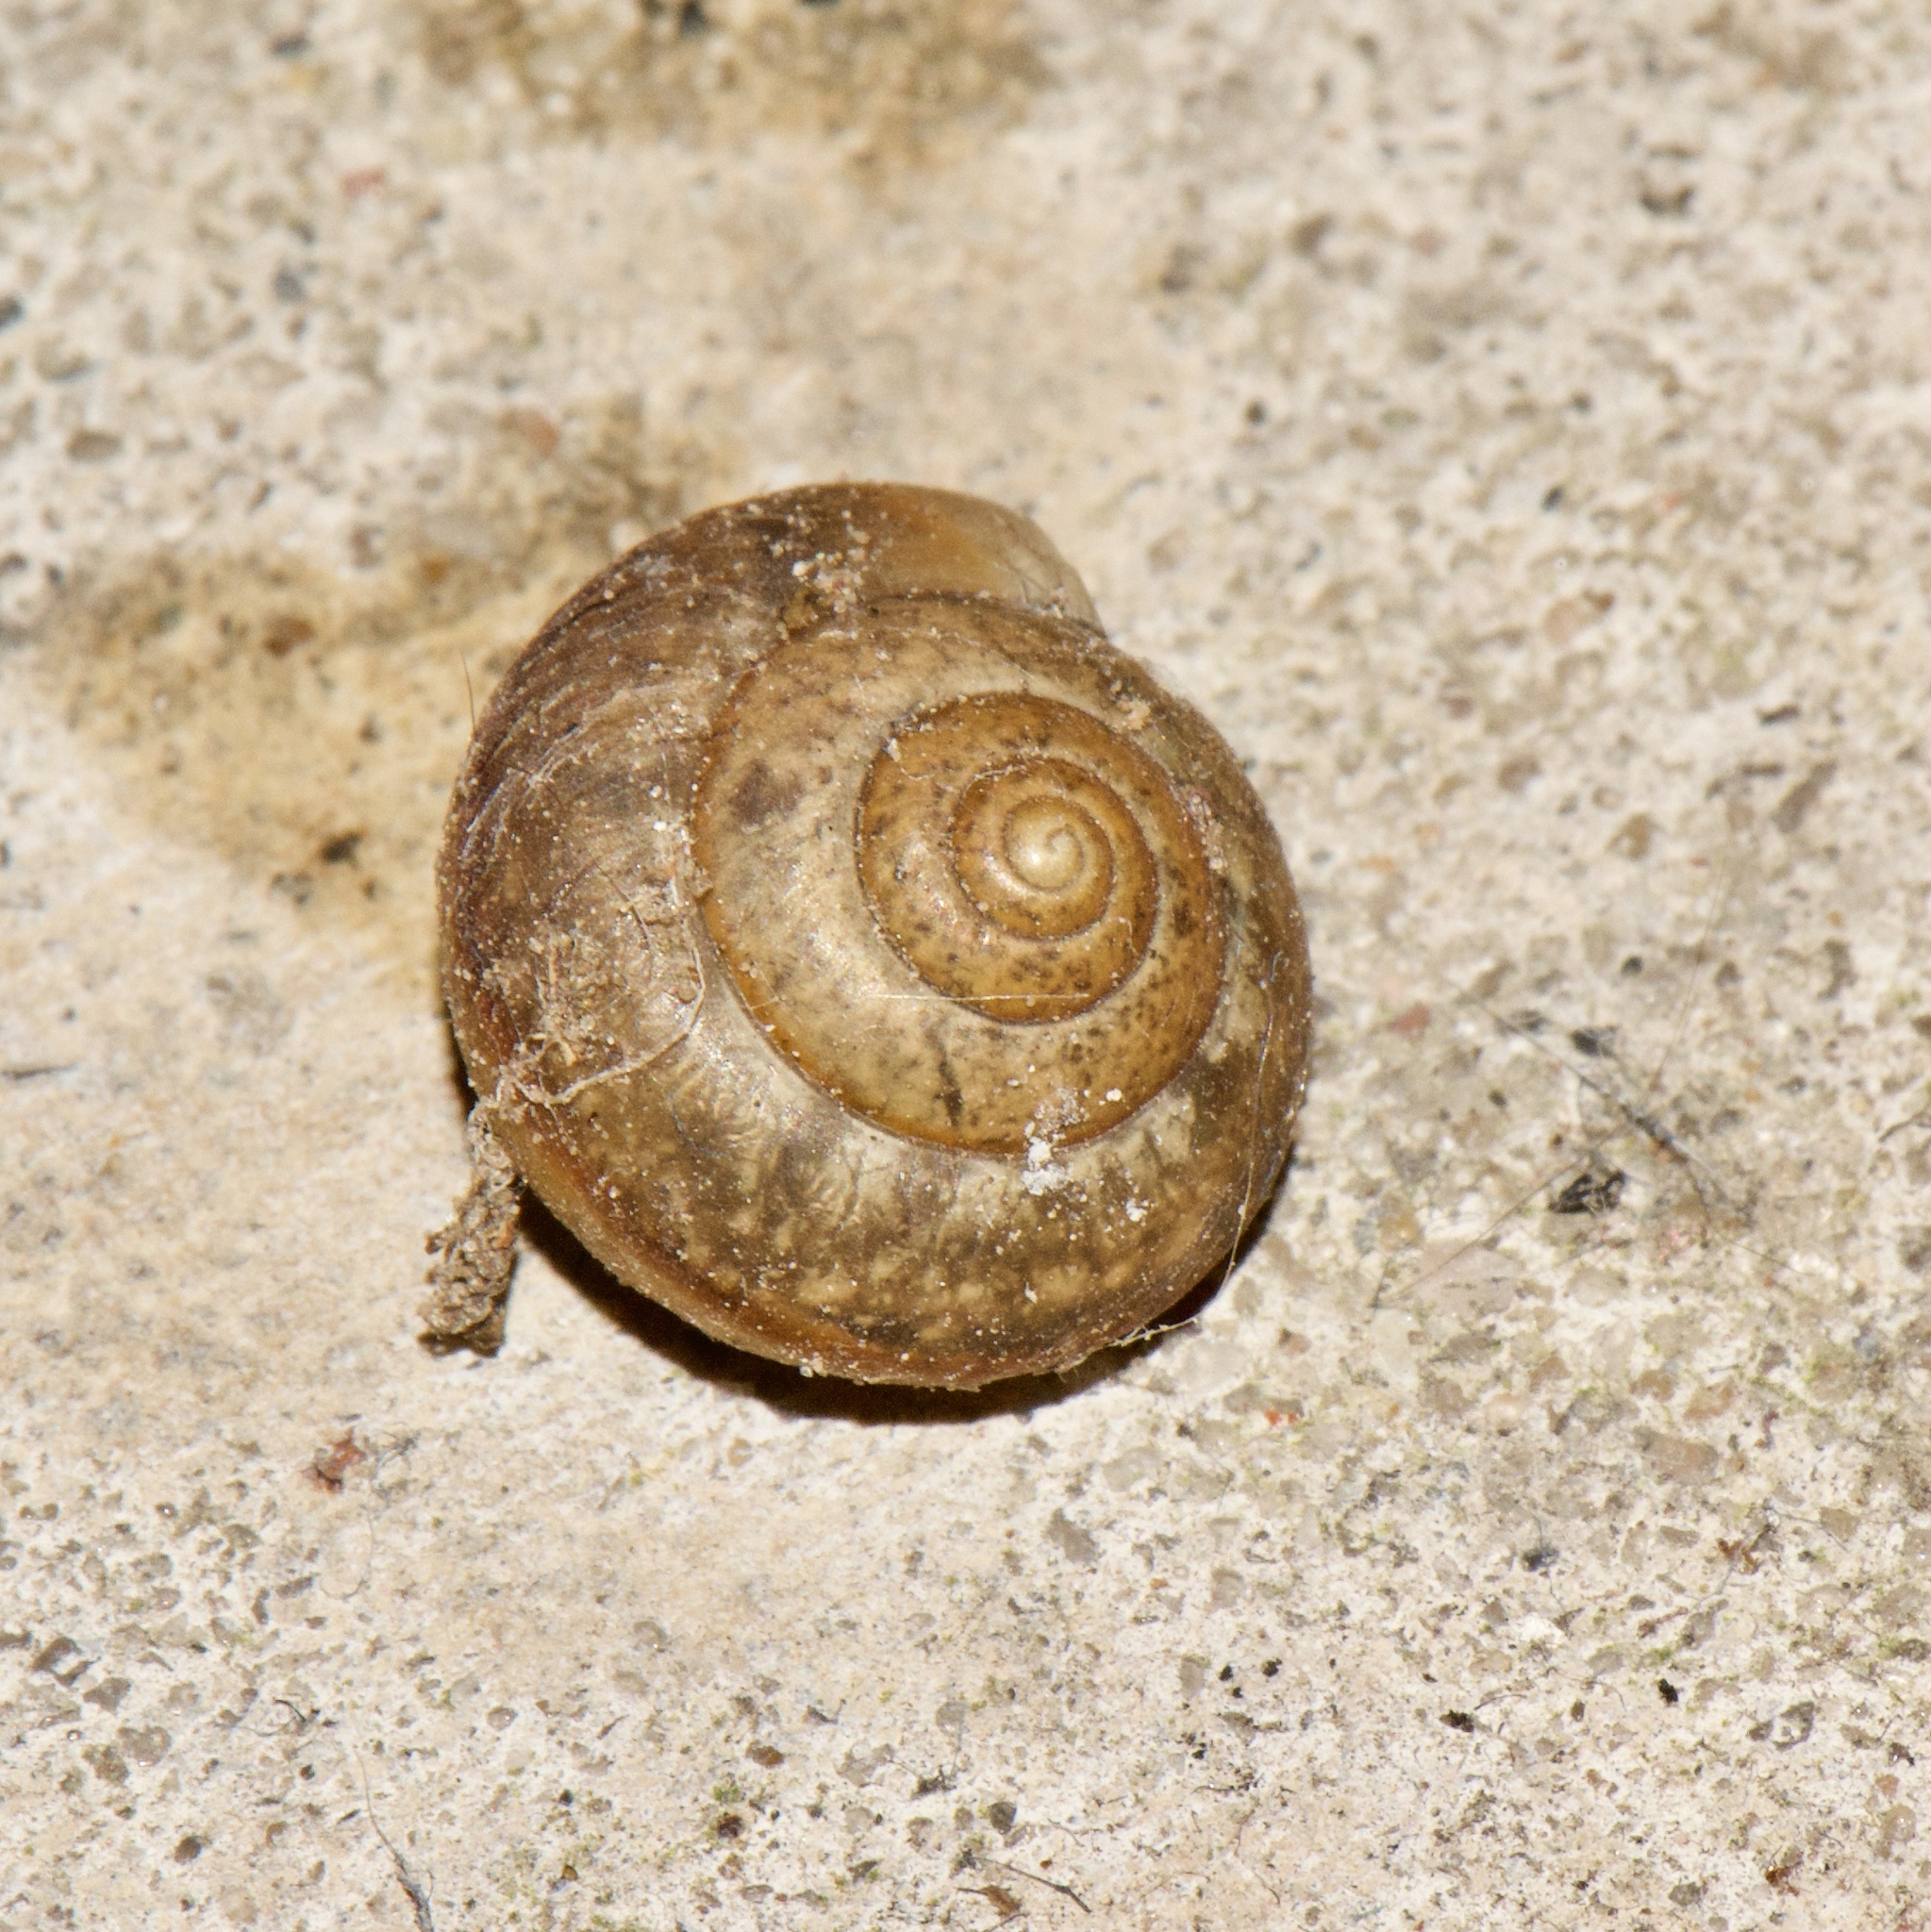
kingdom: Animalia
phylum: Mollusca
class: Gastropoda
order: Stylommatophora
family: Camaenidae
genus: Bradybaena
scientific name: Bradybaena similaris
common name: Asian trampsnail
